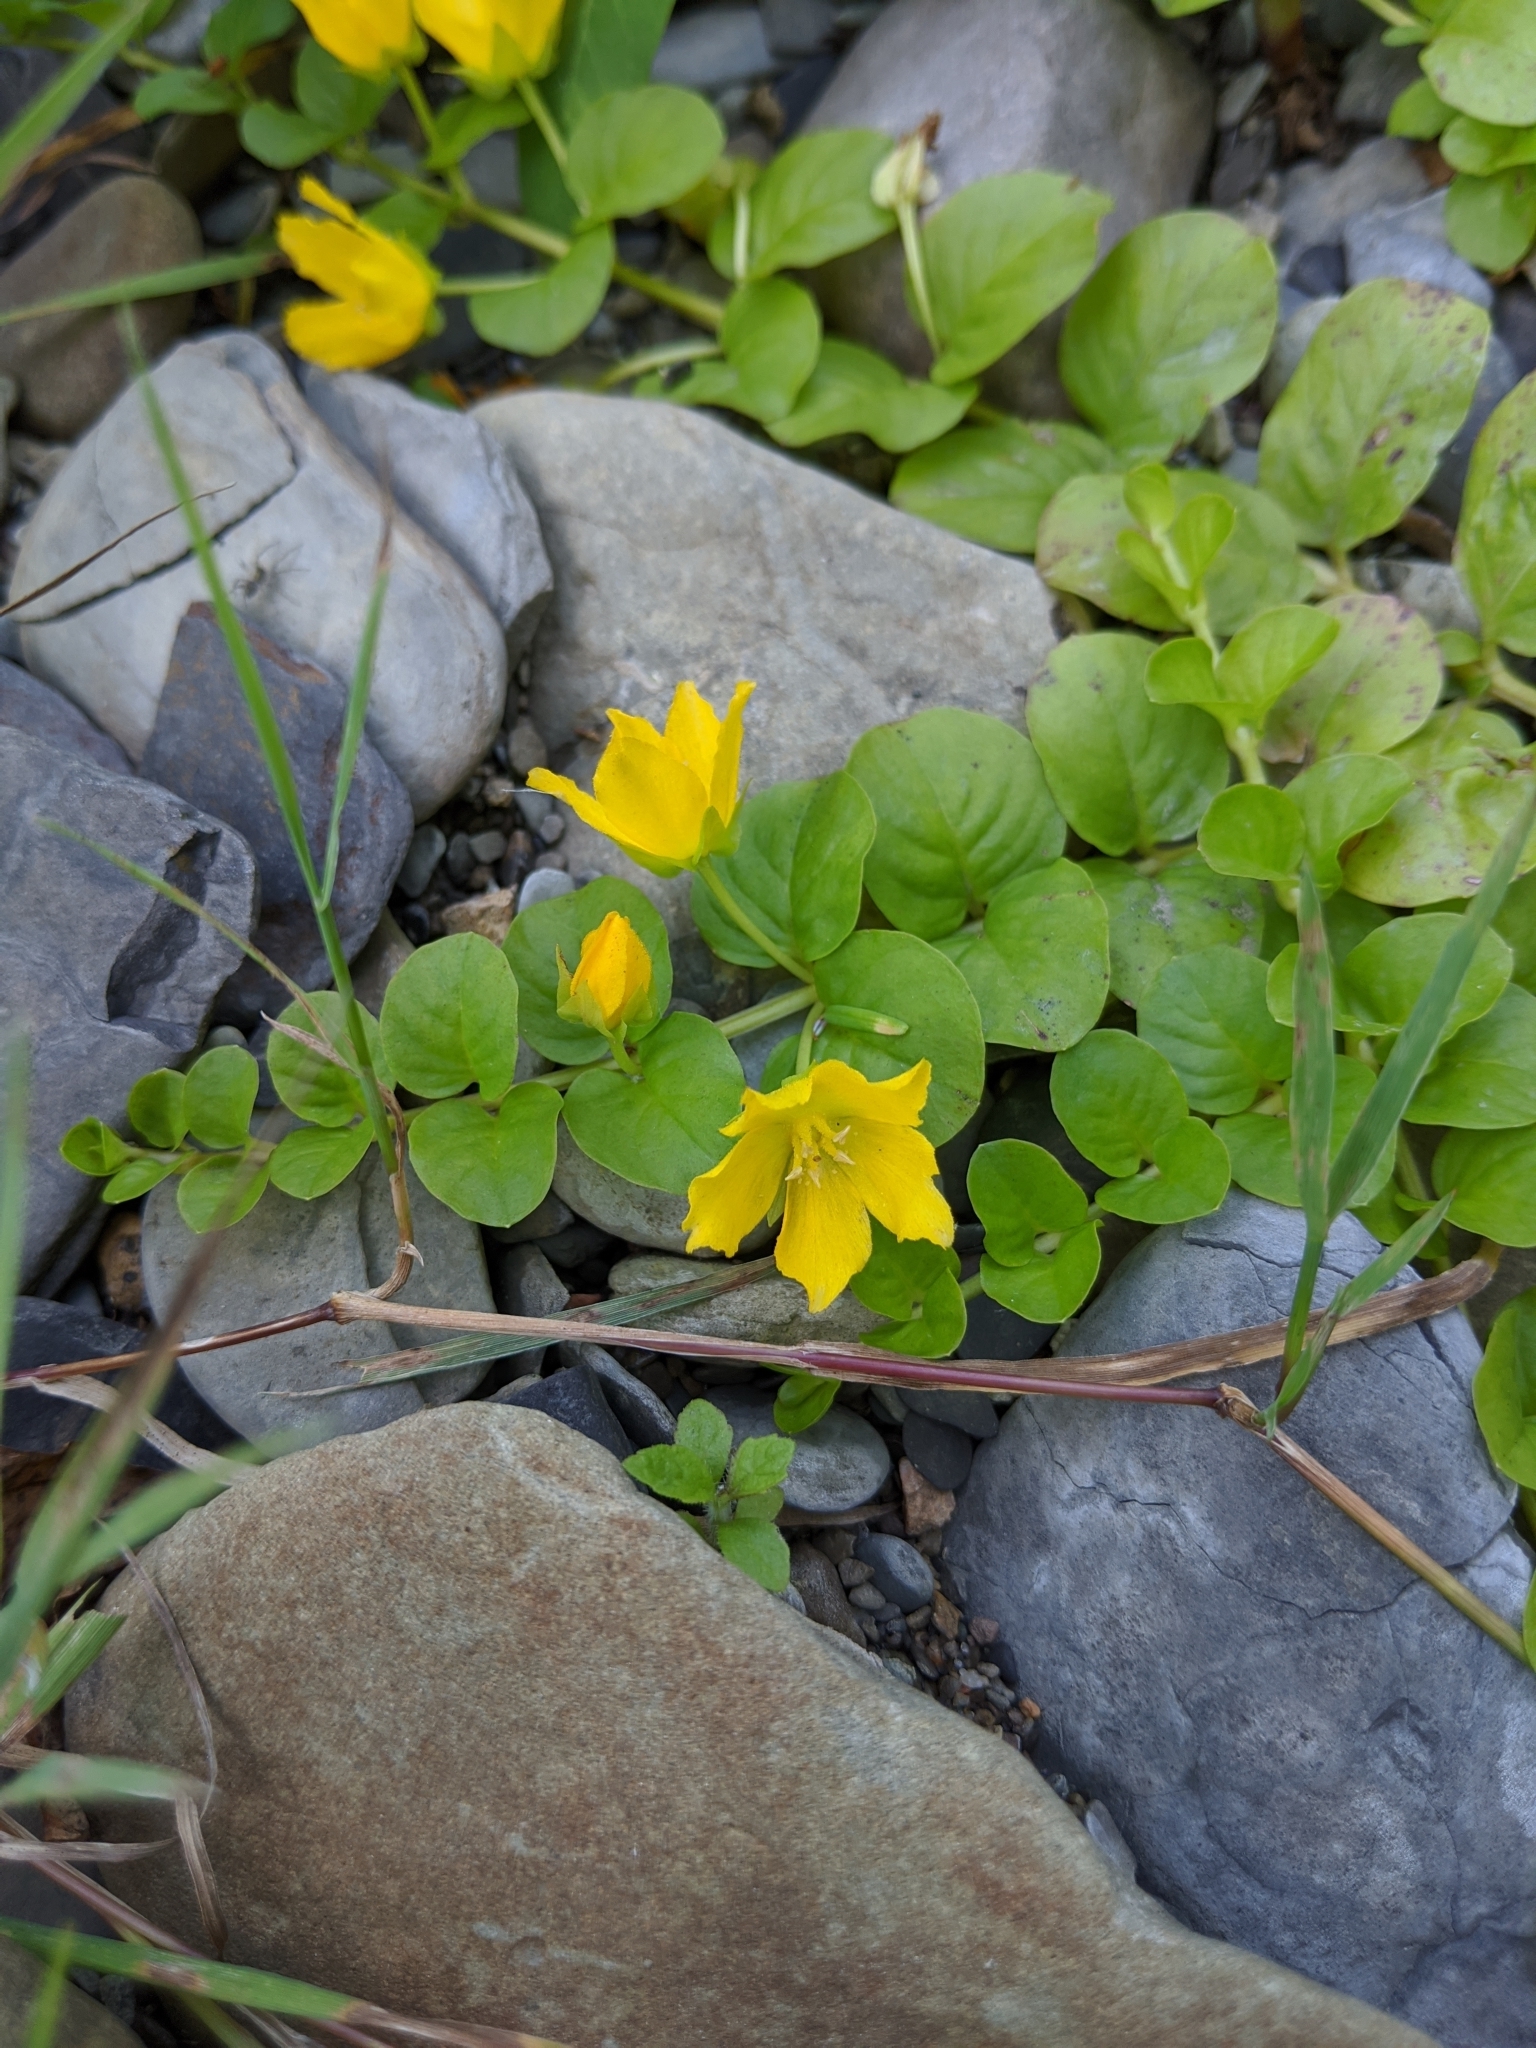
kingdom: Plantae
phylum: Tracheophyta
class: Magnoliopsida
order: Ericales
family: Primulaceae
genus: Lysimachia
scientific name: Lysimachia nummularia
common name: Moneywort
